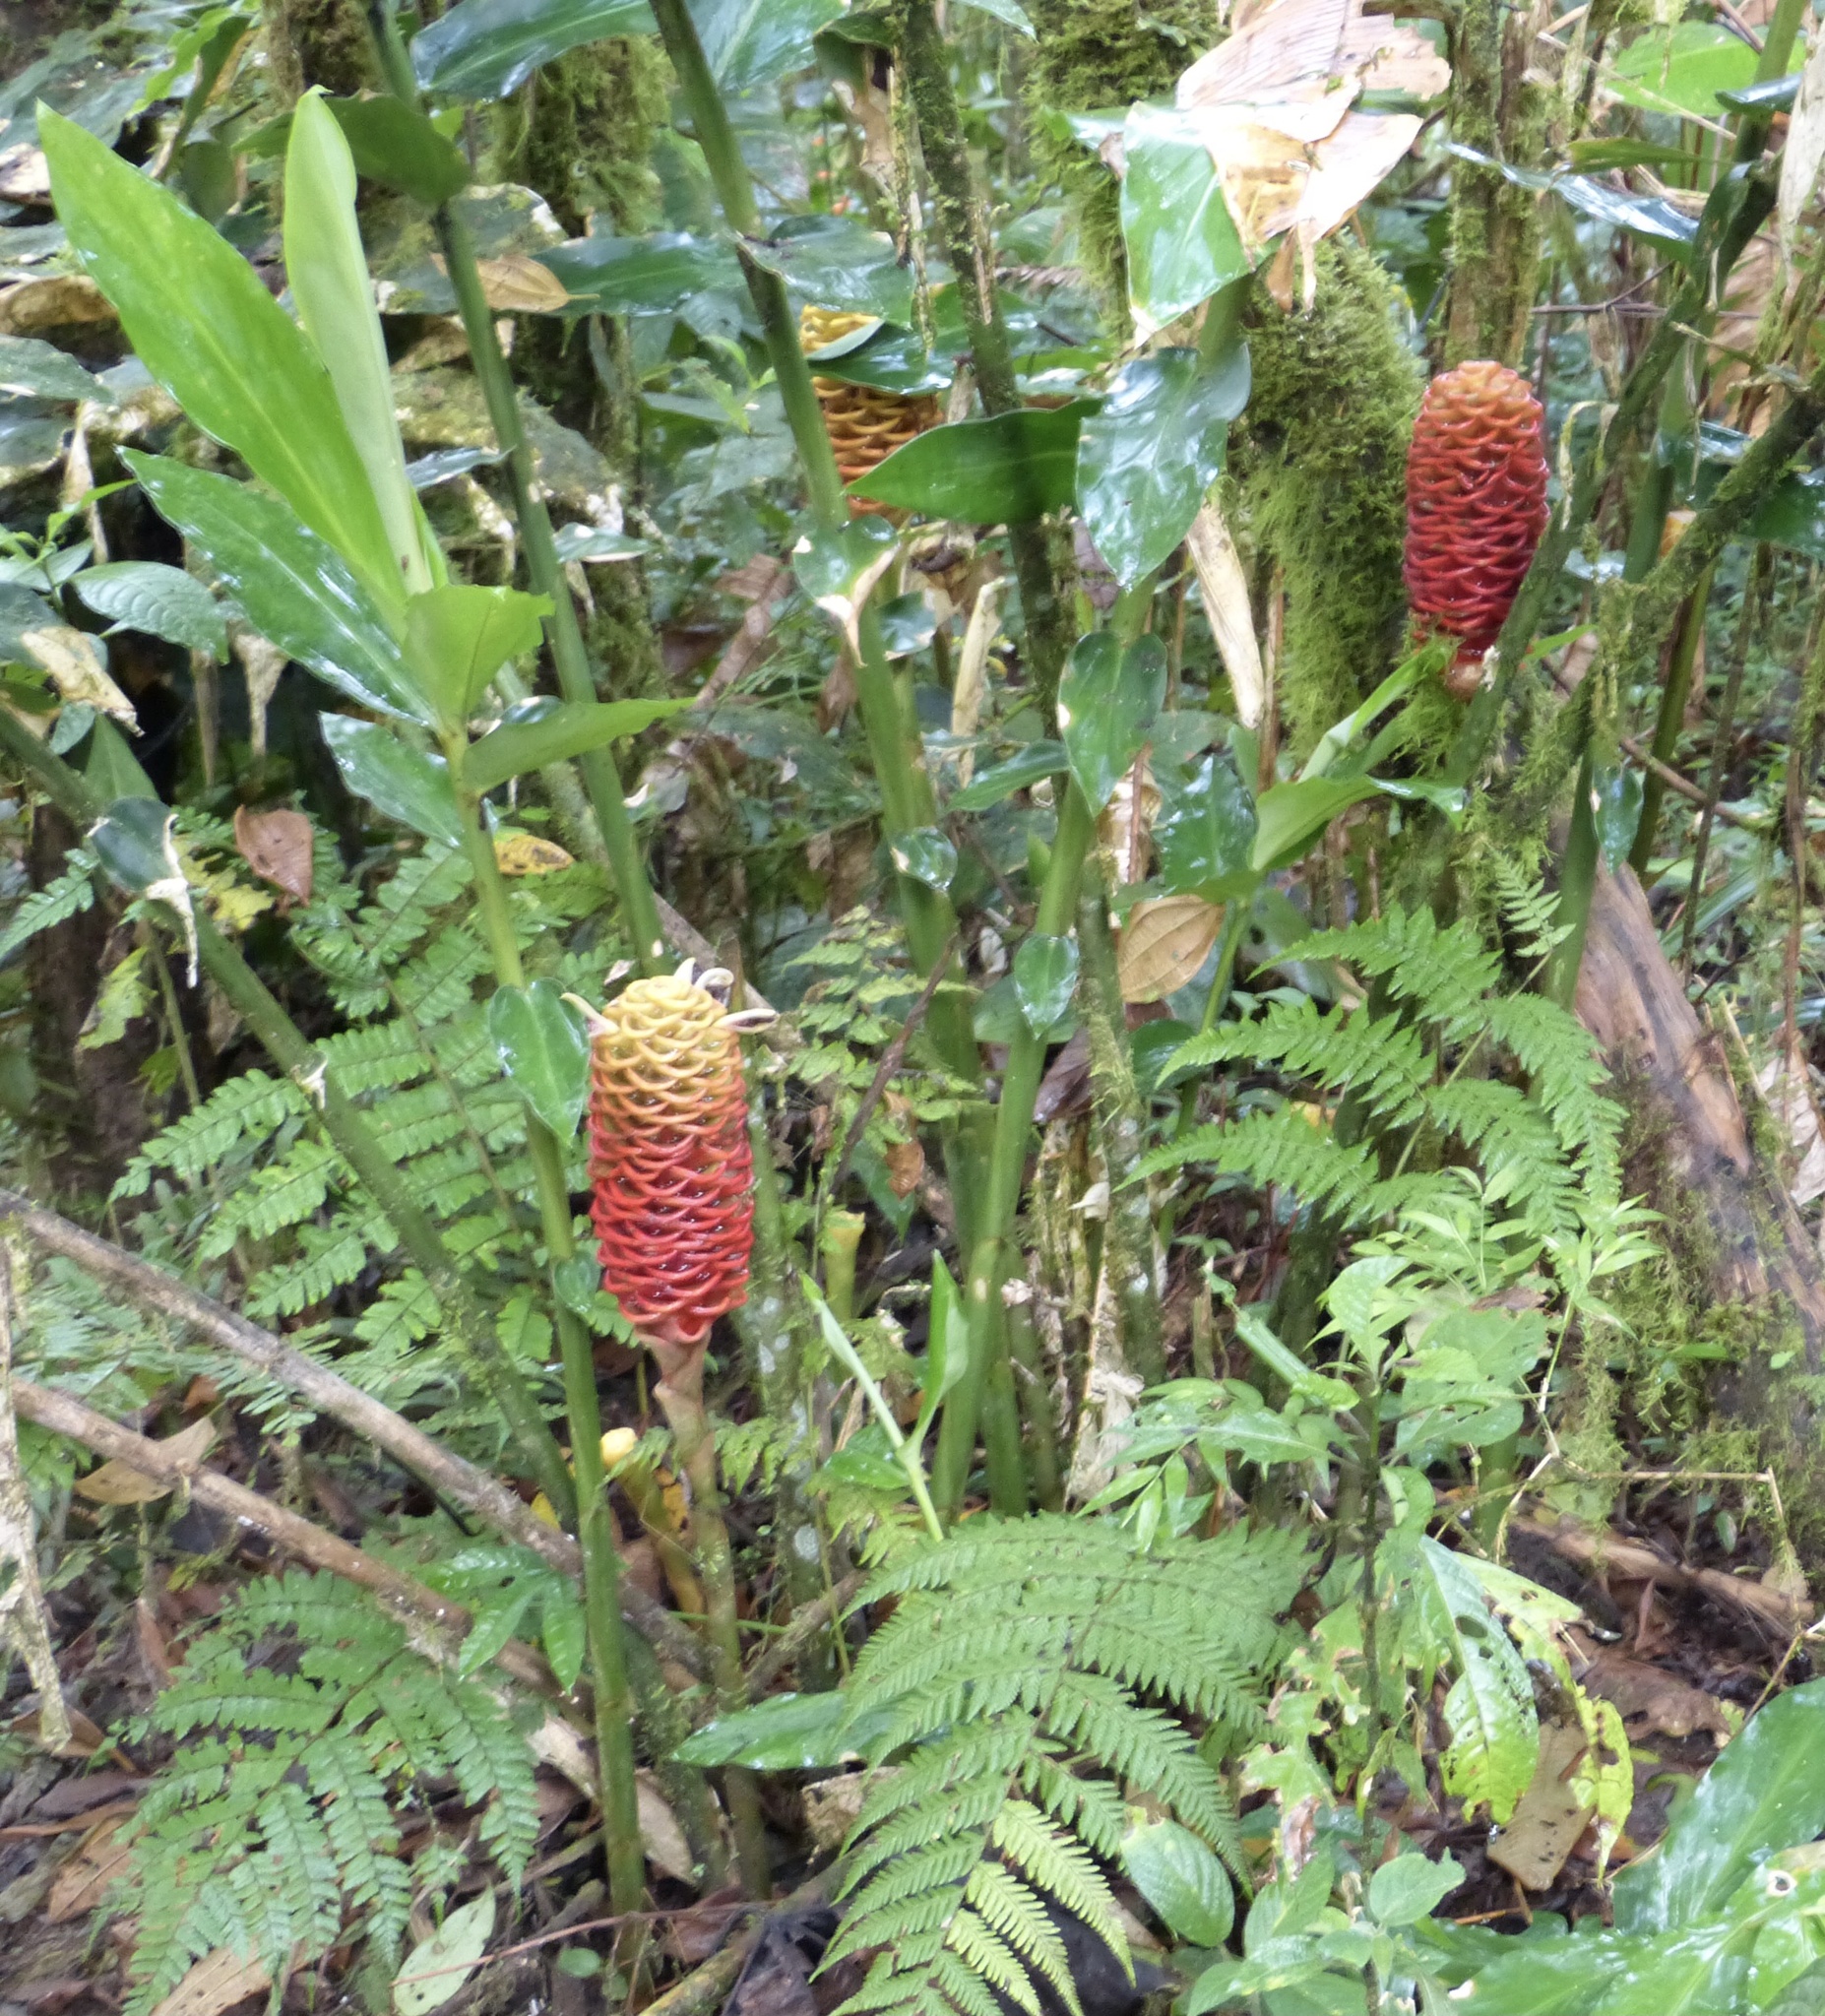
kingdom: Plantae
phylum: Tracheophyta
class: Liliopsida
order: Zingiberales
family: Zingiberaceae
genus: Zingiber
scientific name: Zingiber spectabile
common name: Beehive ginger
